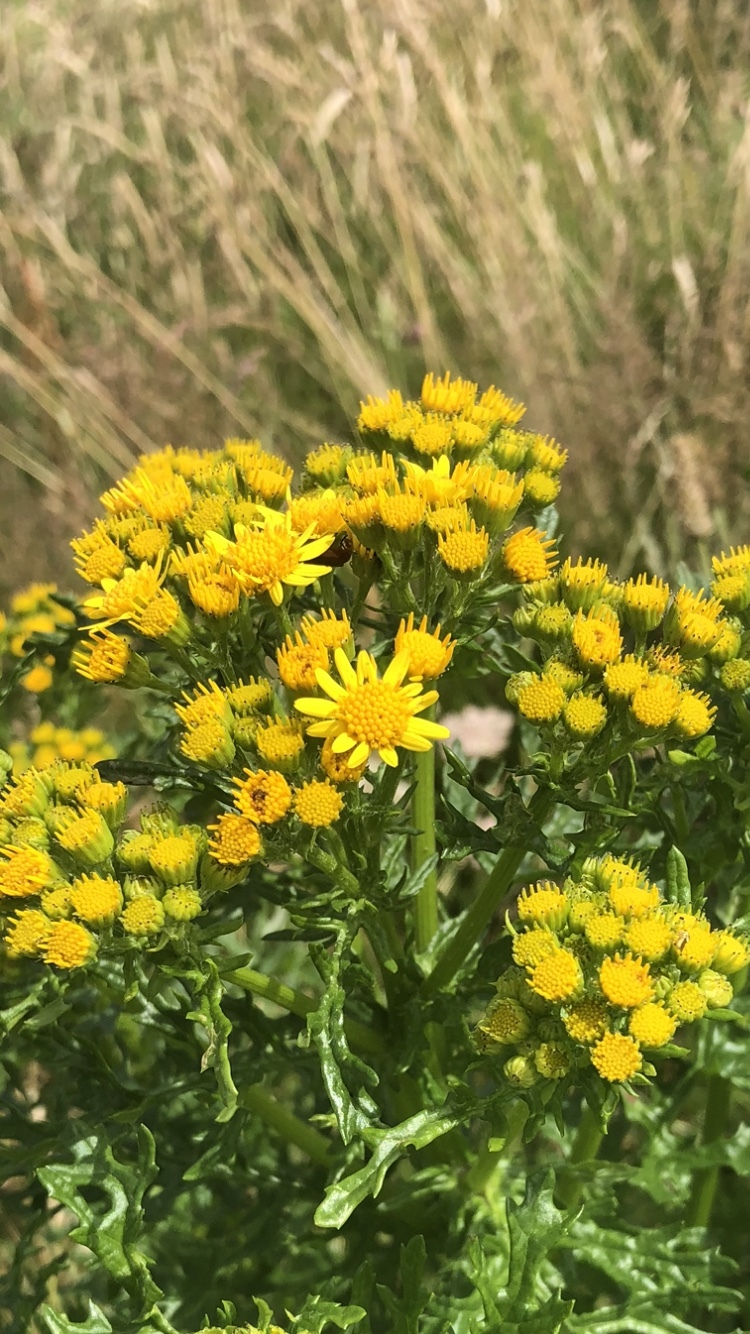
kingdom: Plantae
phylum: Tracheophyta
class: Magnoliopsida
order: Asterales
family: Asteraceae
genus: Jacobaea
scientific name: Jacobaea vulgaris
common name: Stinking willie
